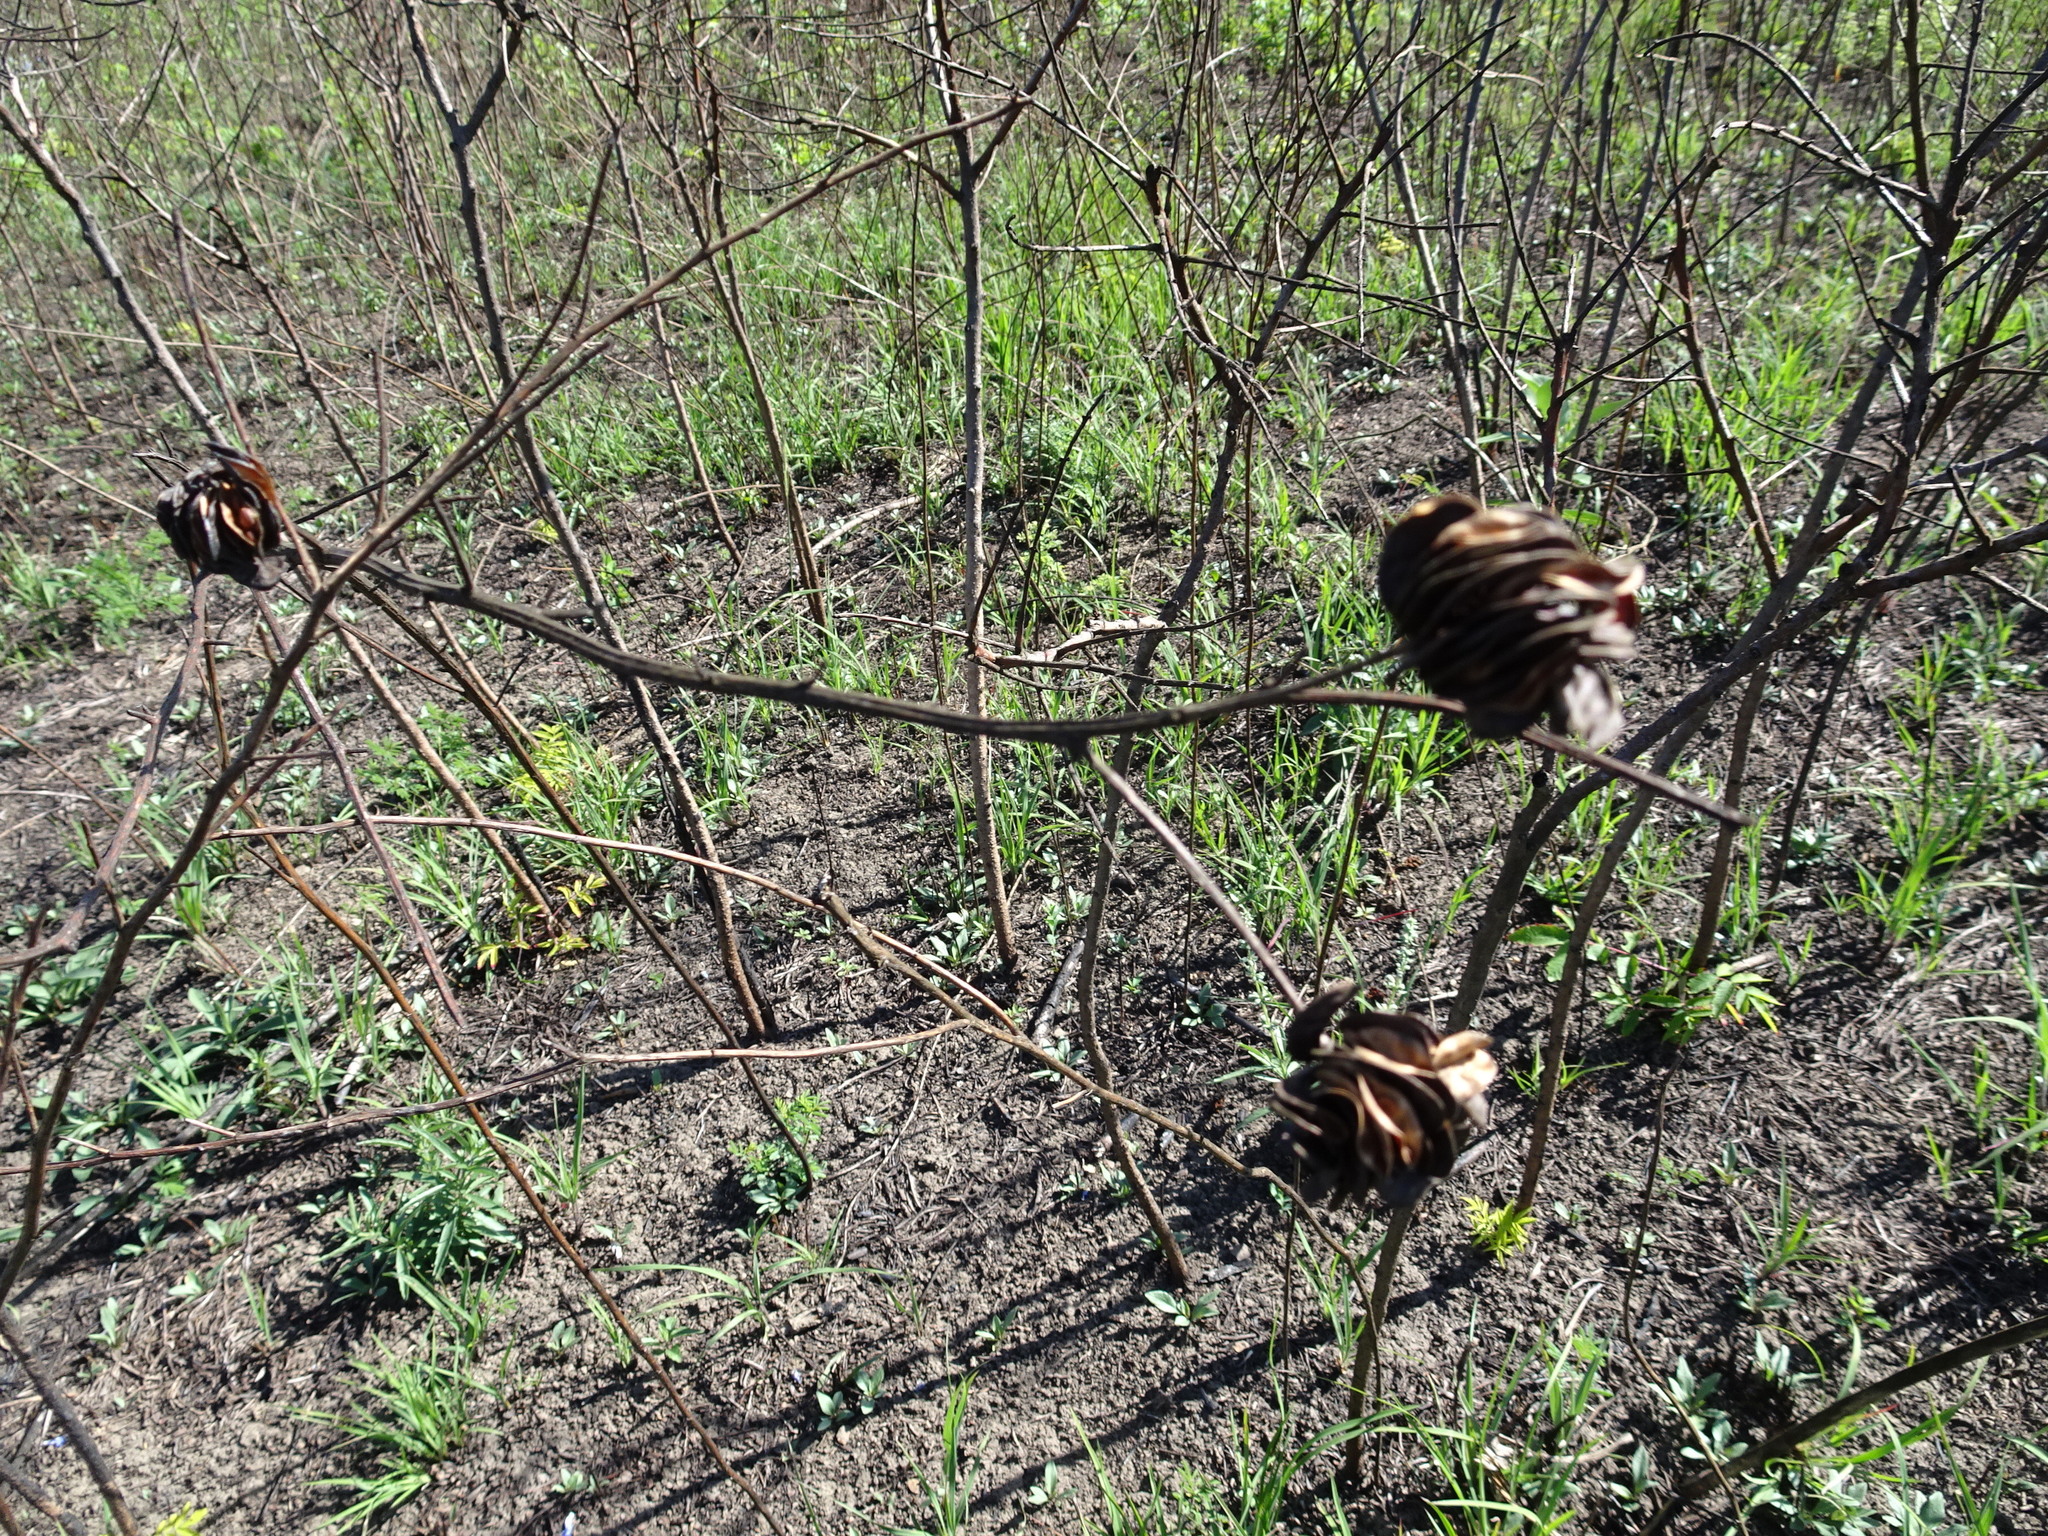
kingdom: Plantae
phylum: Tracheophyta
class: Magnoliopsida
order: Fabales
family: Fabaceae
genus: Desmanthus
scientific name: Desmanthus illinoensis
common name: Illinois bundle-flower
